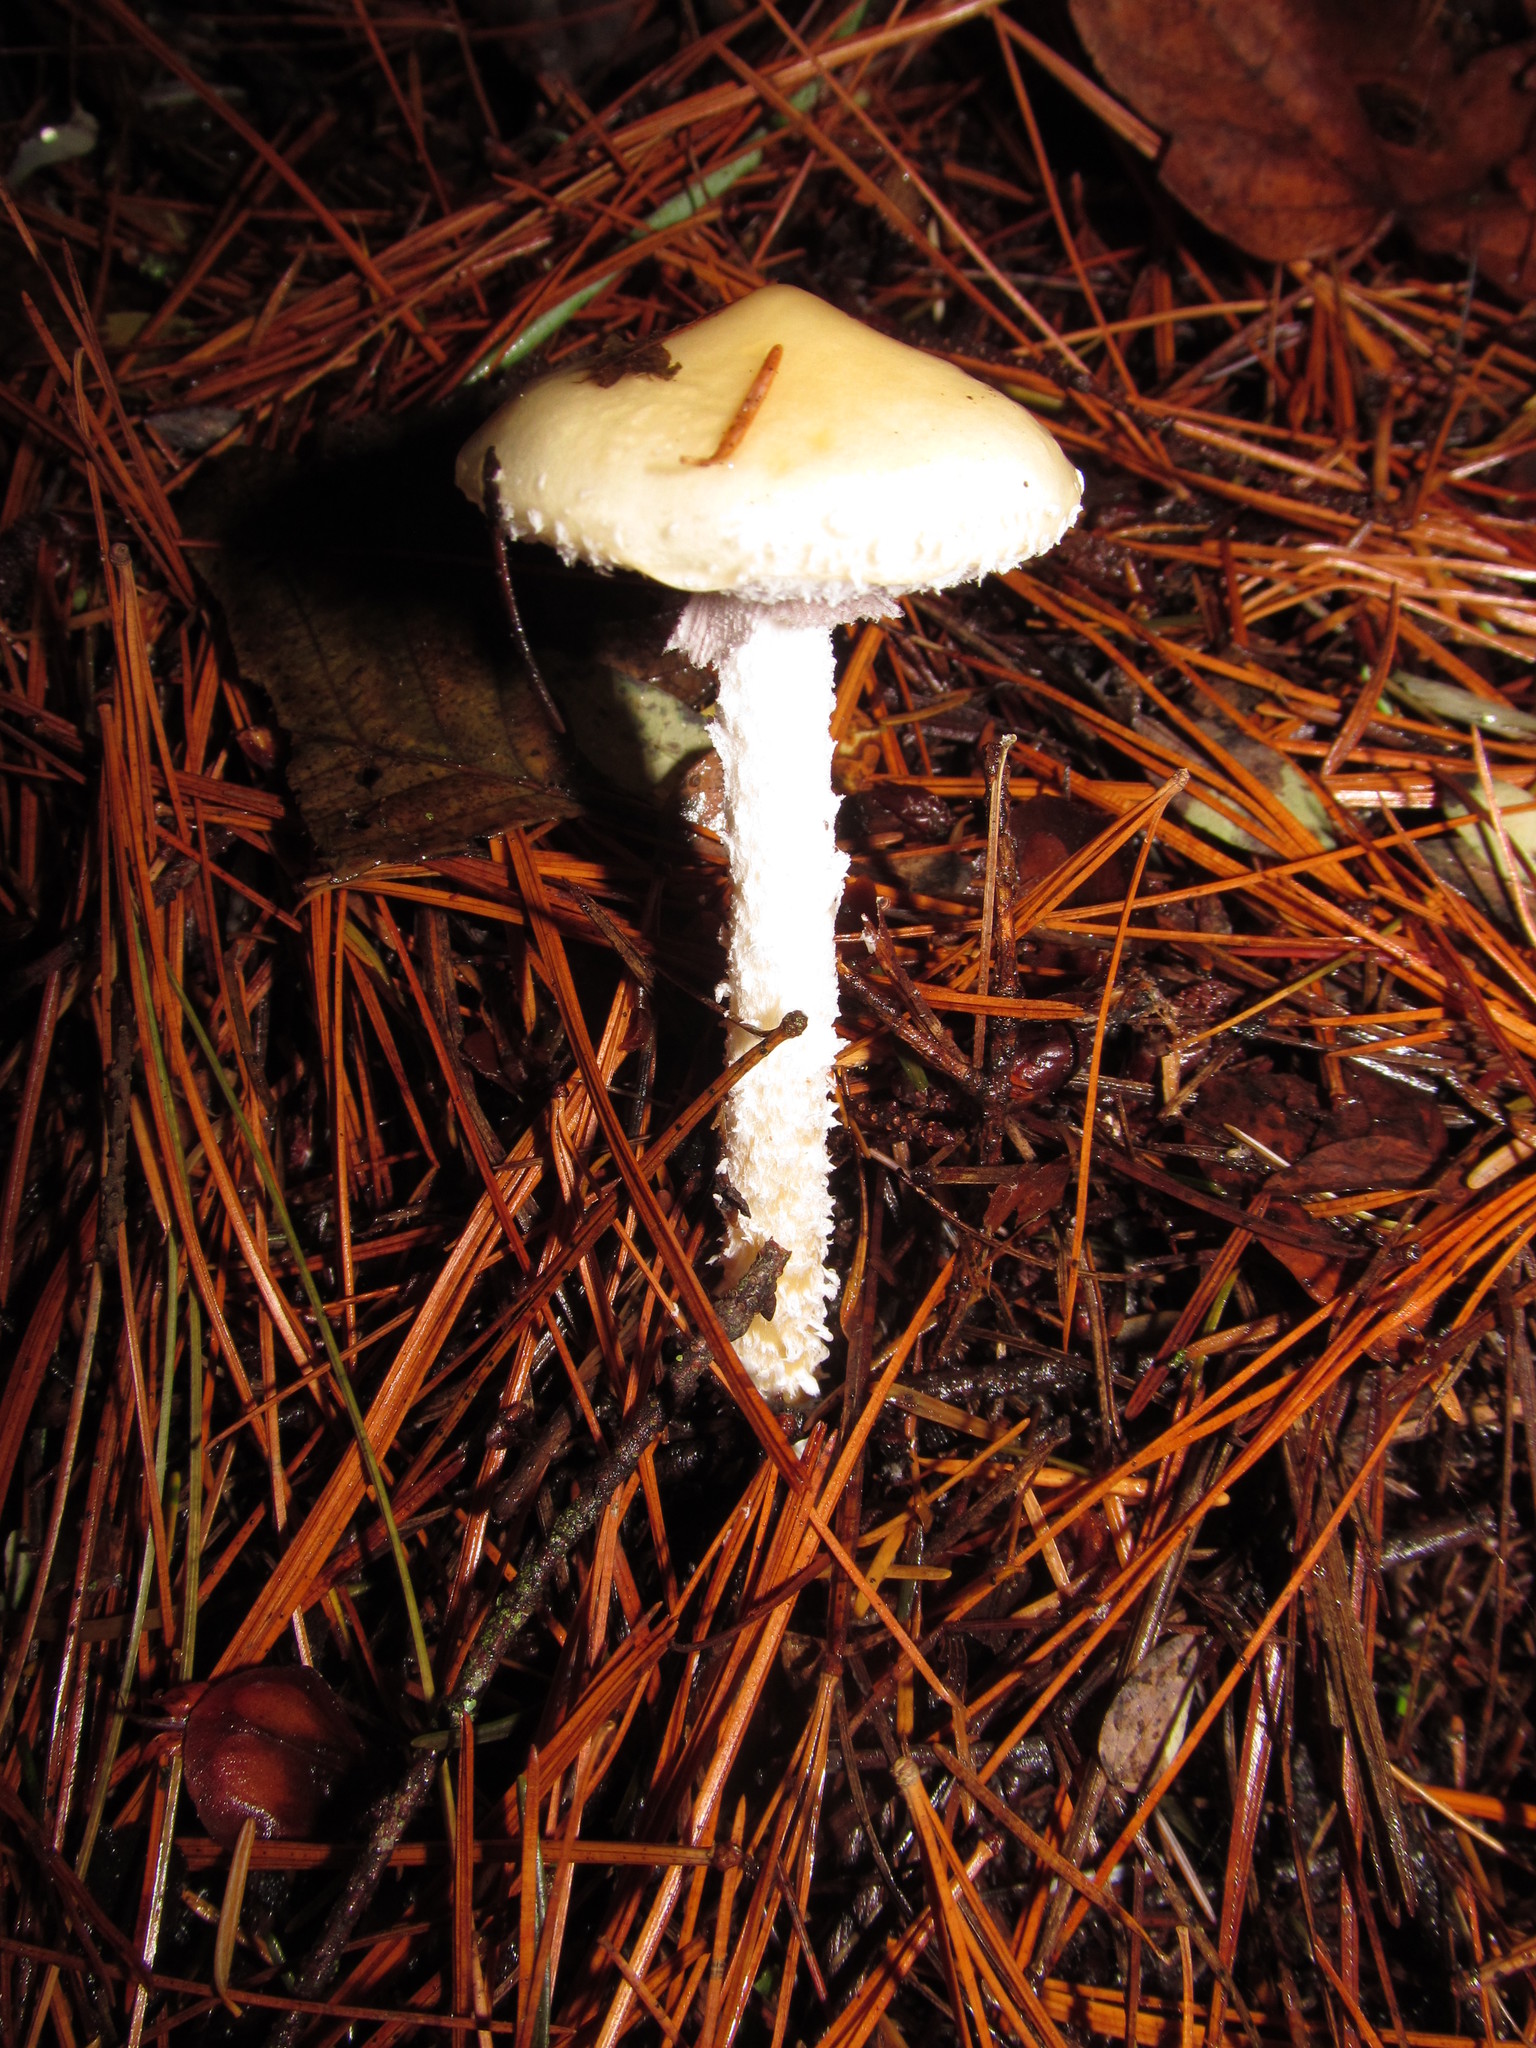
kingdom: Fungi
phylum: Basidiomycota
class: Agaricomycetes
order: Agaricales
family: Strophariaceae
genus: Stropharia
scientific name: Stropharia ambigua
